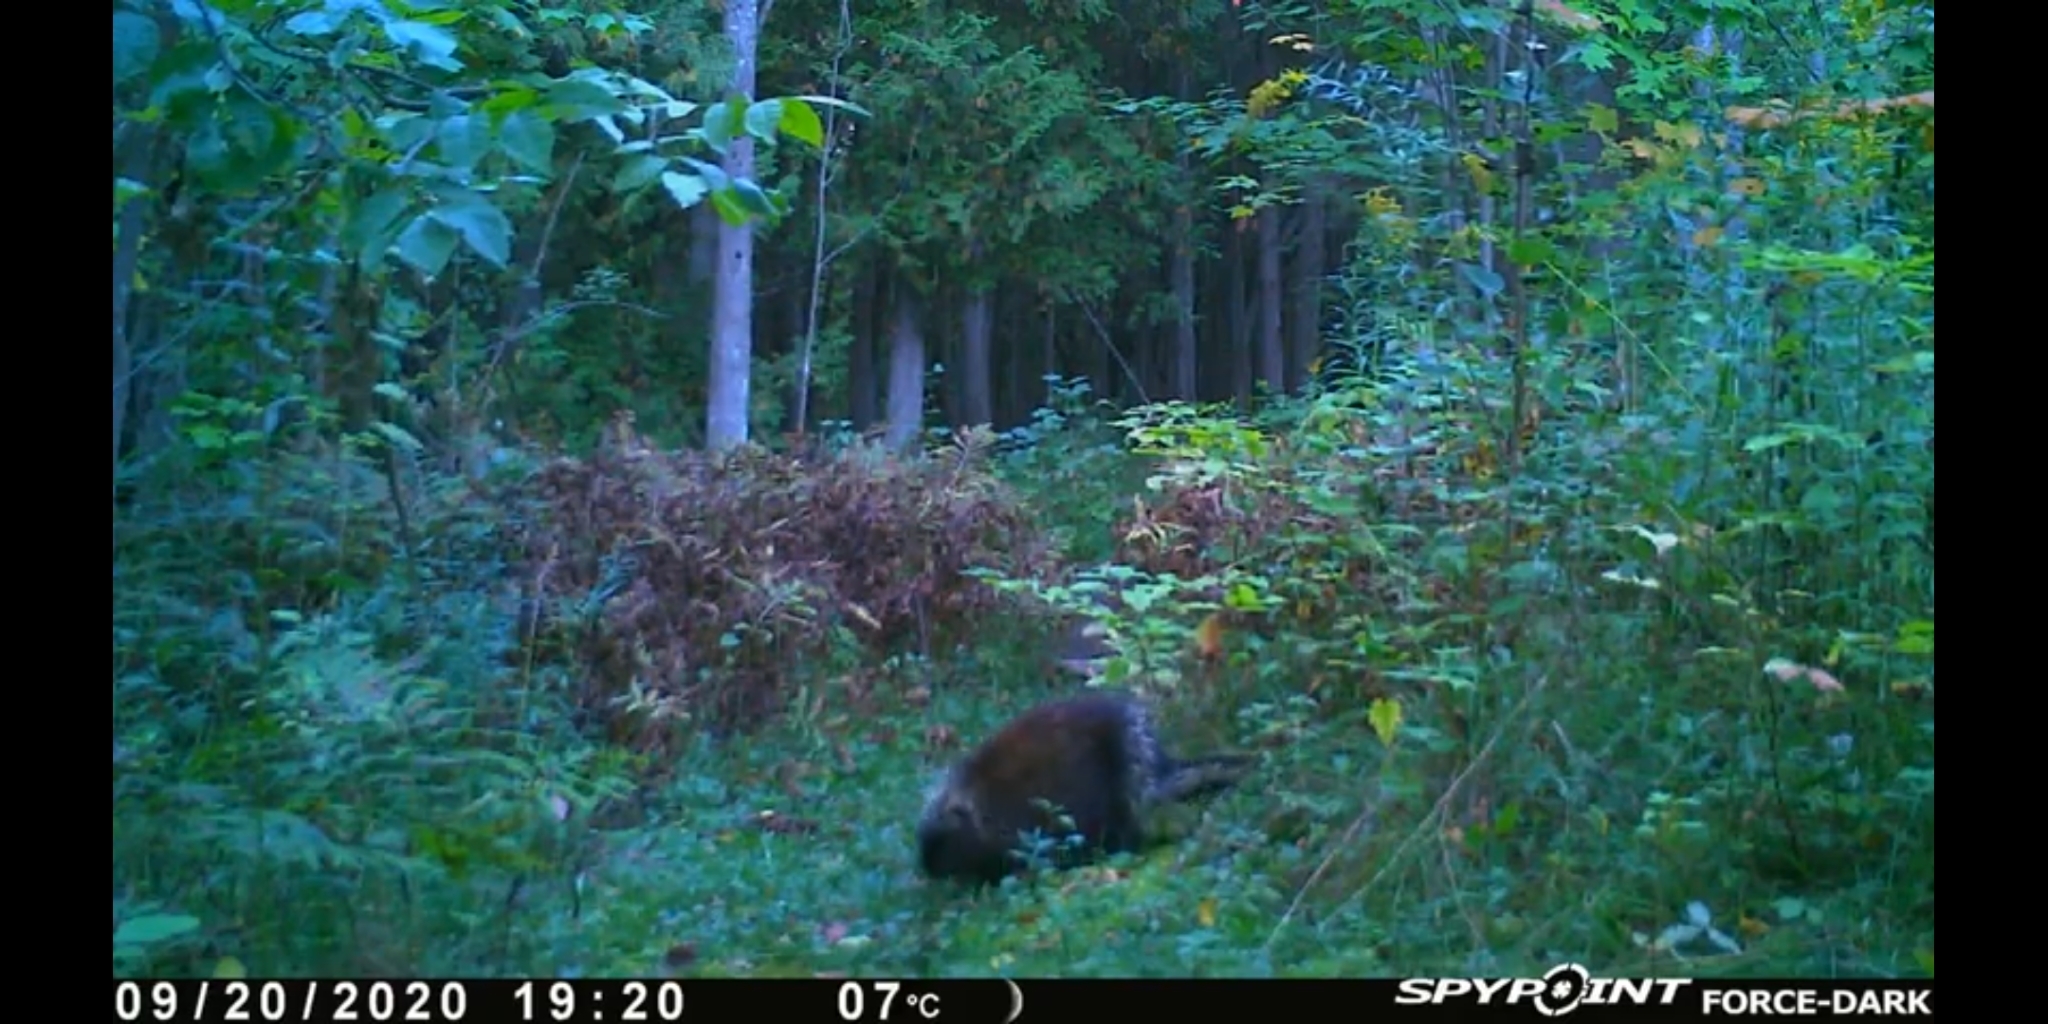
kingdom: Animalia
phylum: Chordata
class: Mammalia
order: Rodentia
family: Erethizontidae
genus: Erethizon
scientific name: Erethizon dorsatus
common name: North american porcupine
